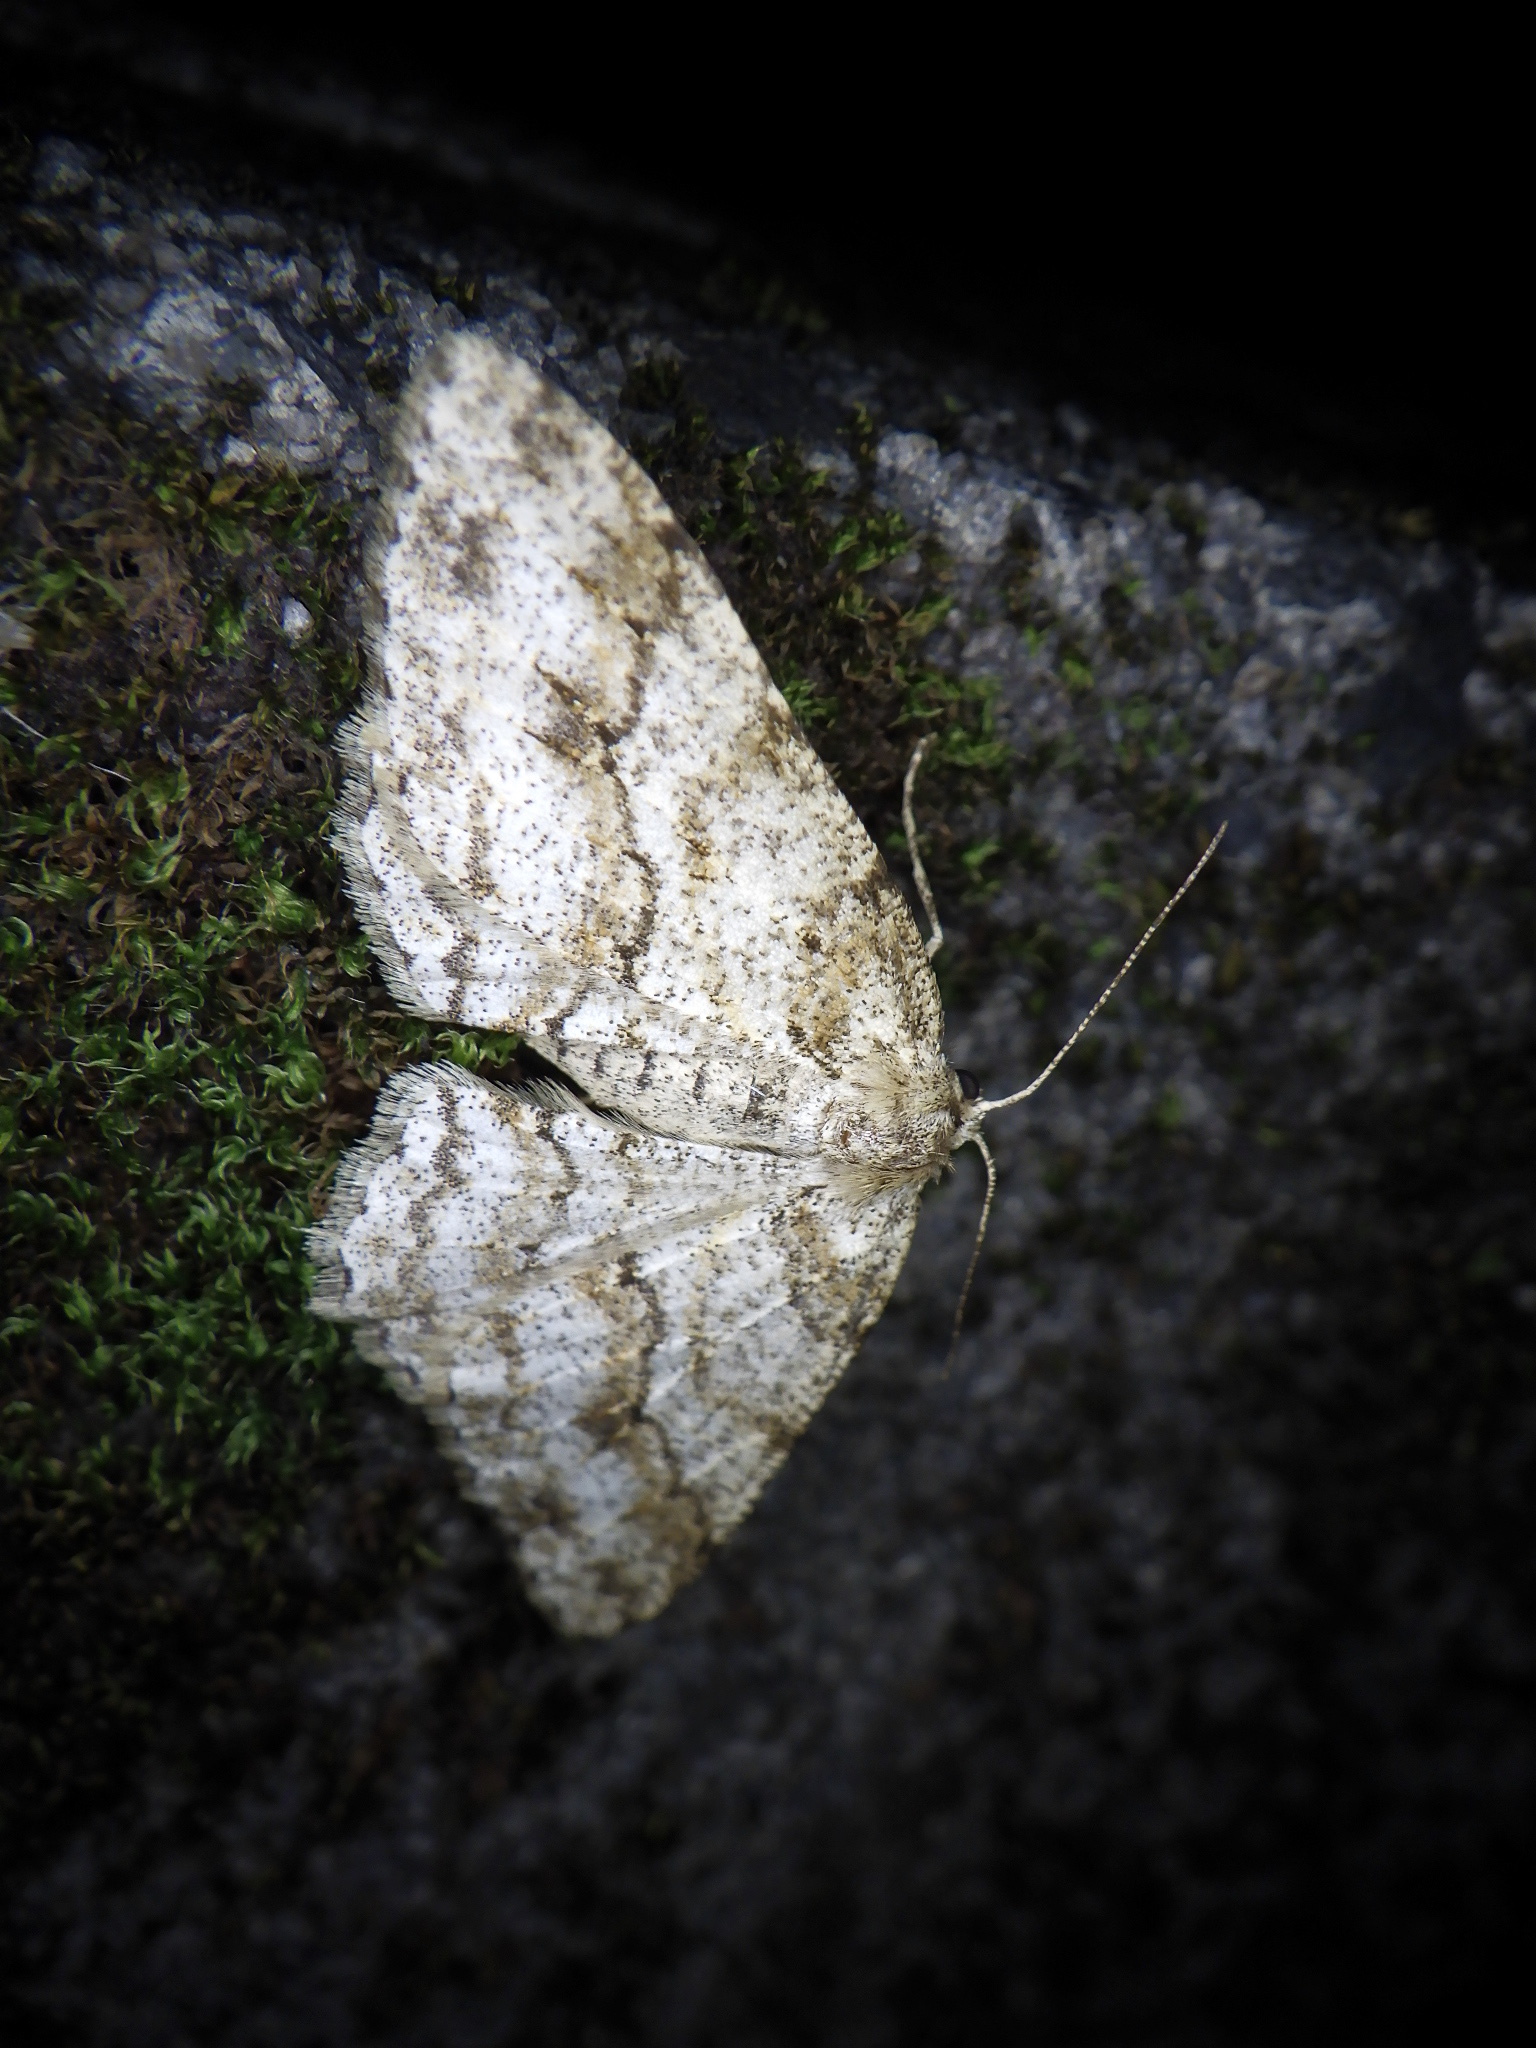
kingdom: Animalia
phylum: Arthropoda
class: Insecta
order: Lepidoptera
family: Geometridae
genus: Ectropis
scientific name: Ectropis excellens
